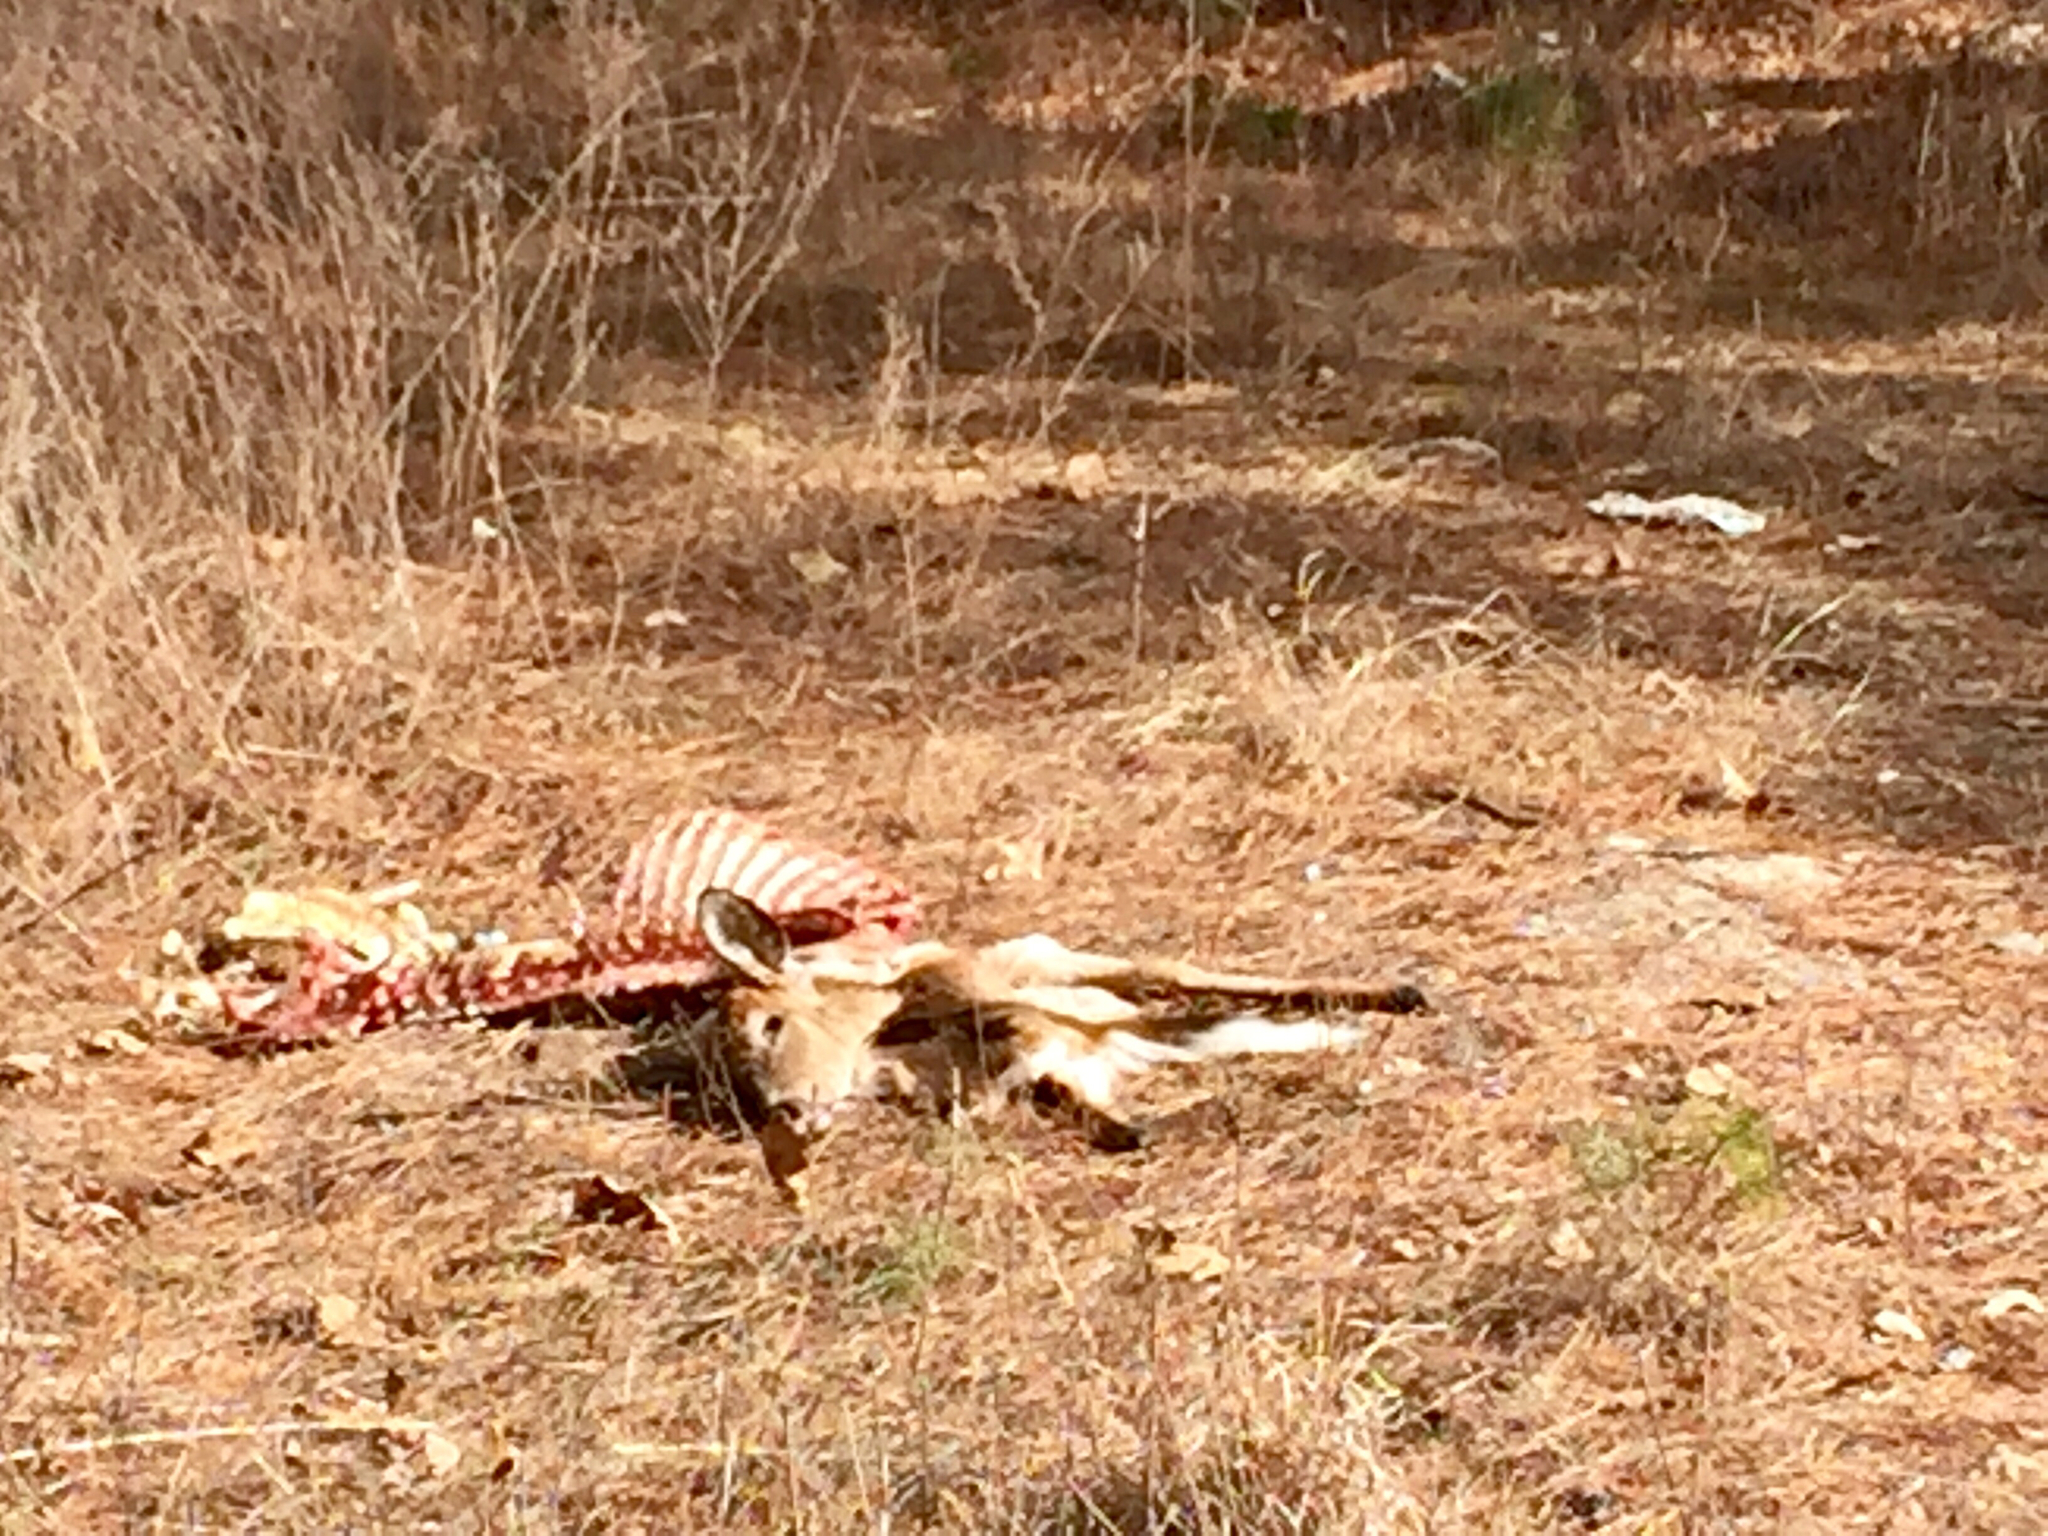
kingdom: Animalia
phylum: Chordata
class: Mammalia
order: Artiodactyla
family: Cervidae
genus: Odocoileus
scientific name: Odocoileus virginianus
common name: White-tailed deer
